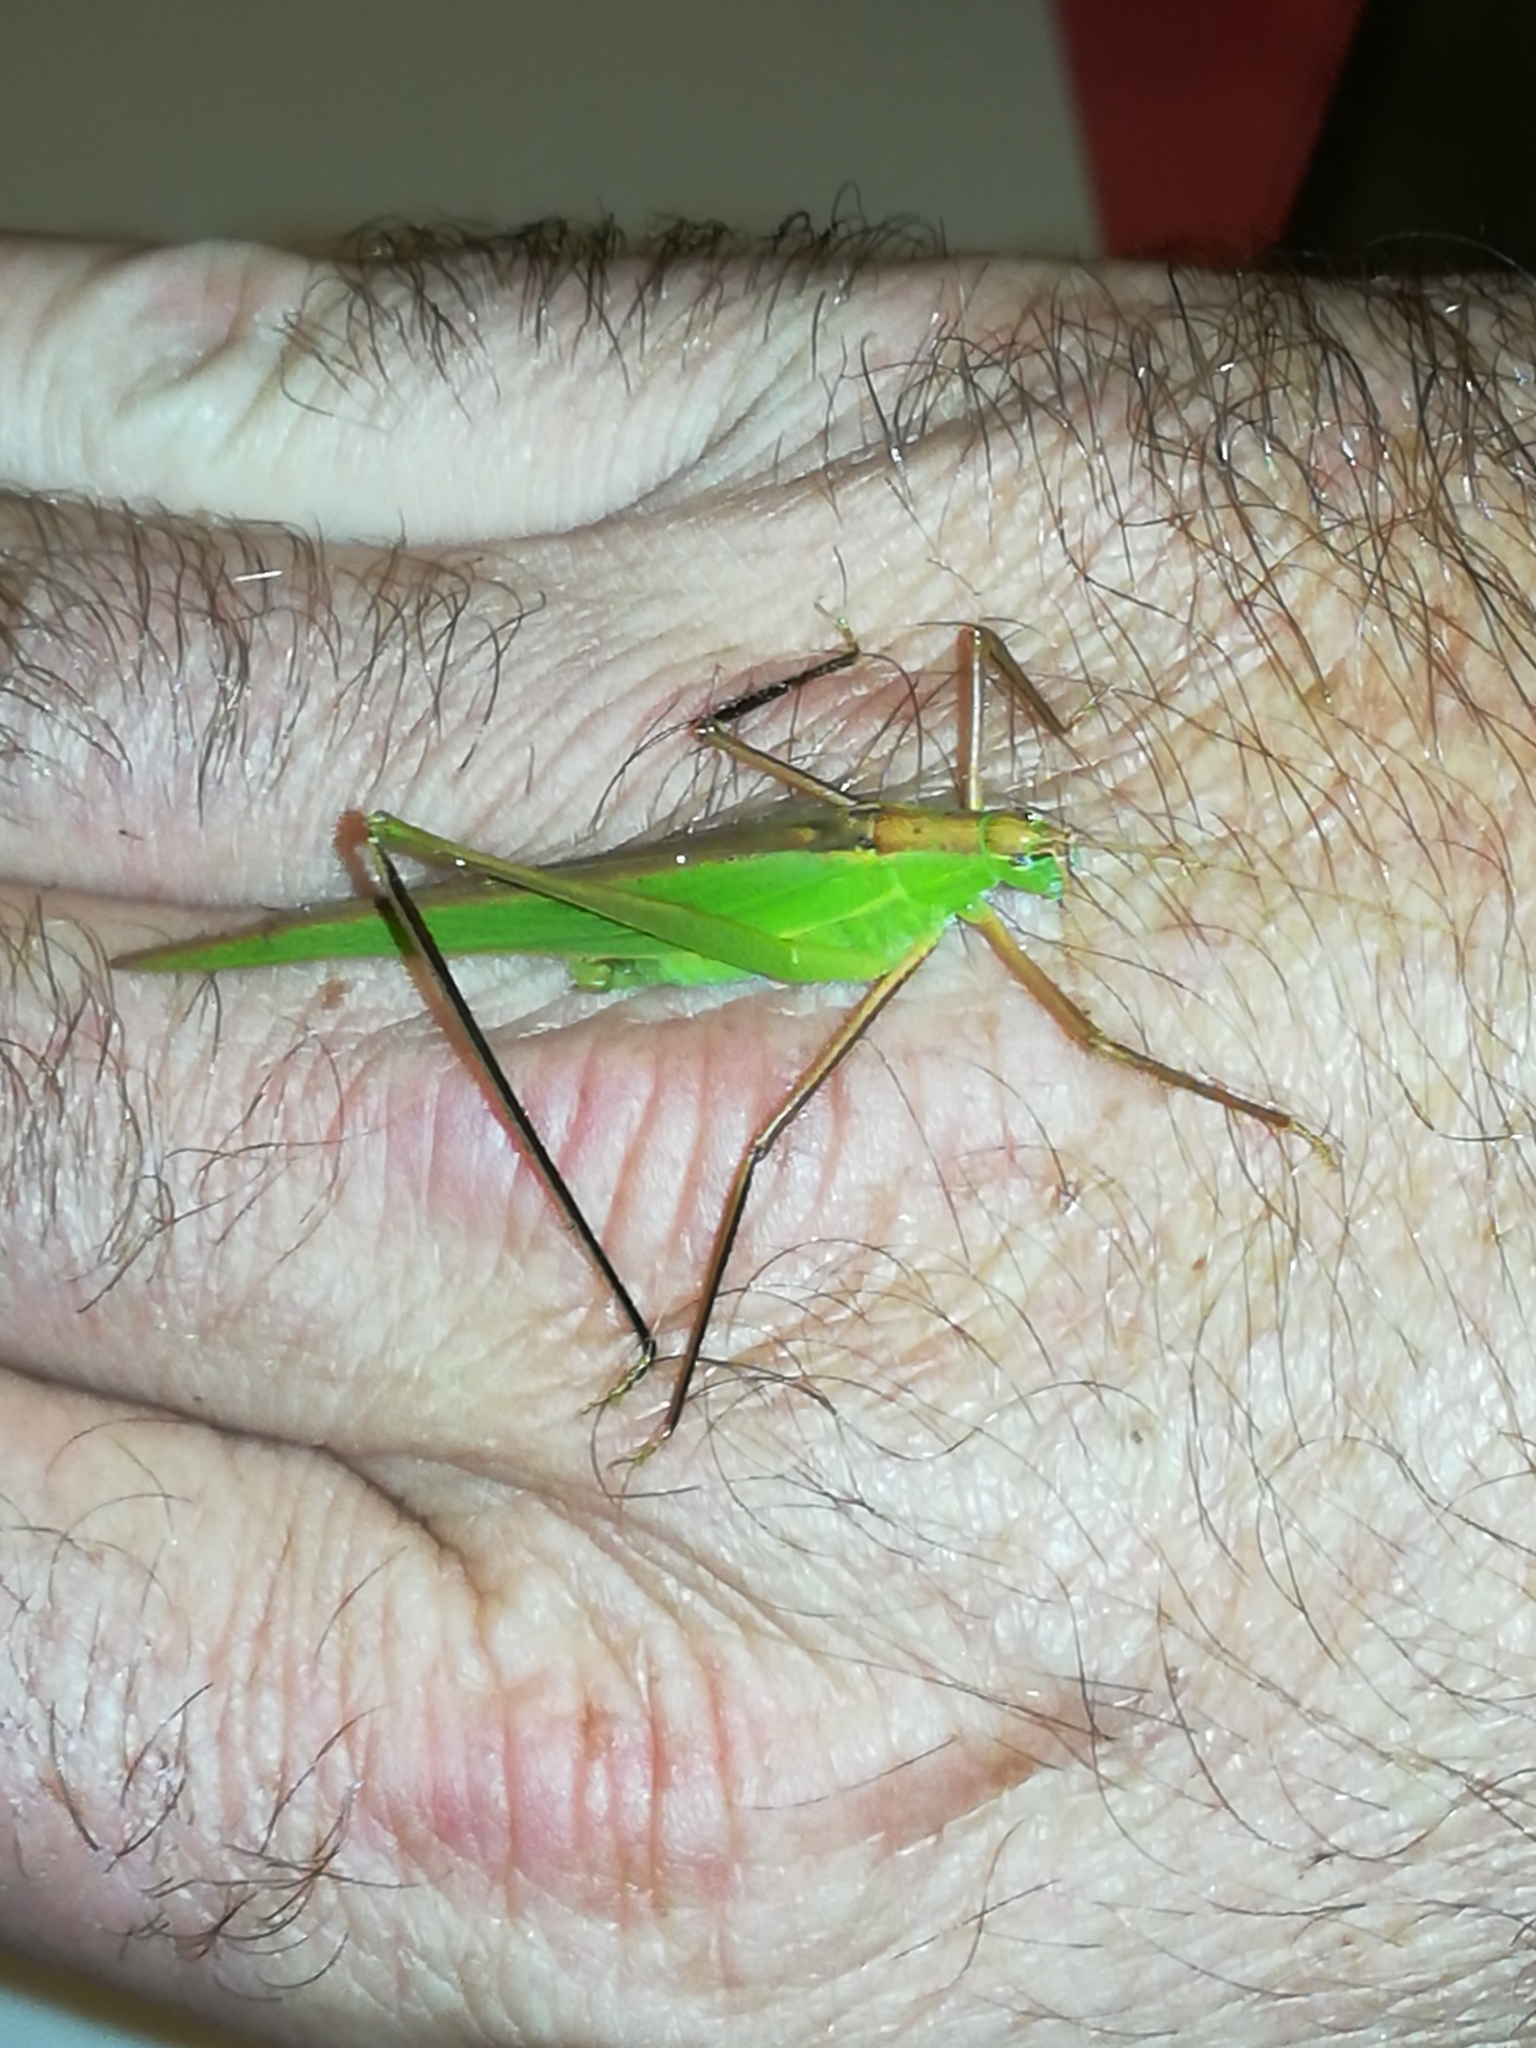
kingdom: Animalia
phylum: Arthropoda
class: Insecta
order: Orthoptera
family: Tettigoniidae
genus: Ducetia
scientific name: Ducetia japonica
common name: Pacific ducetia
